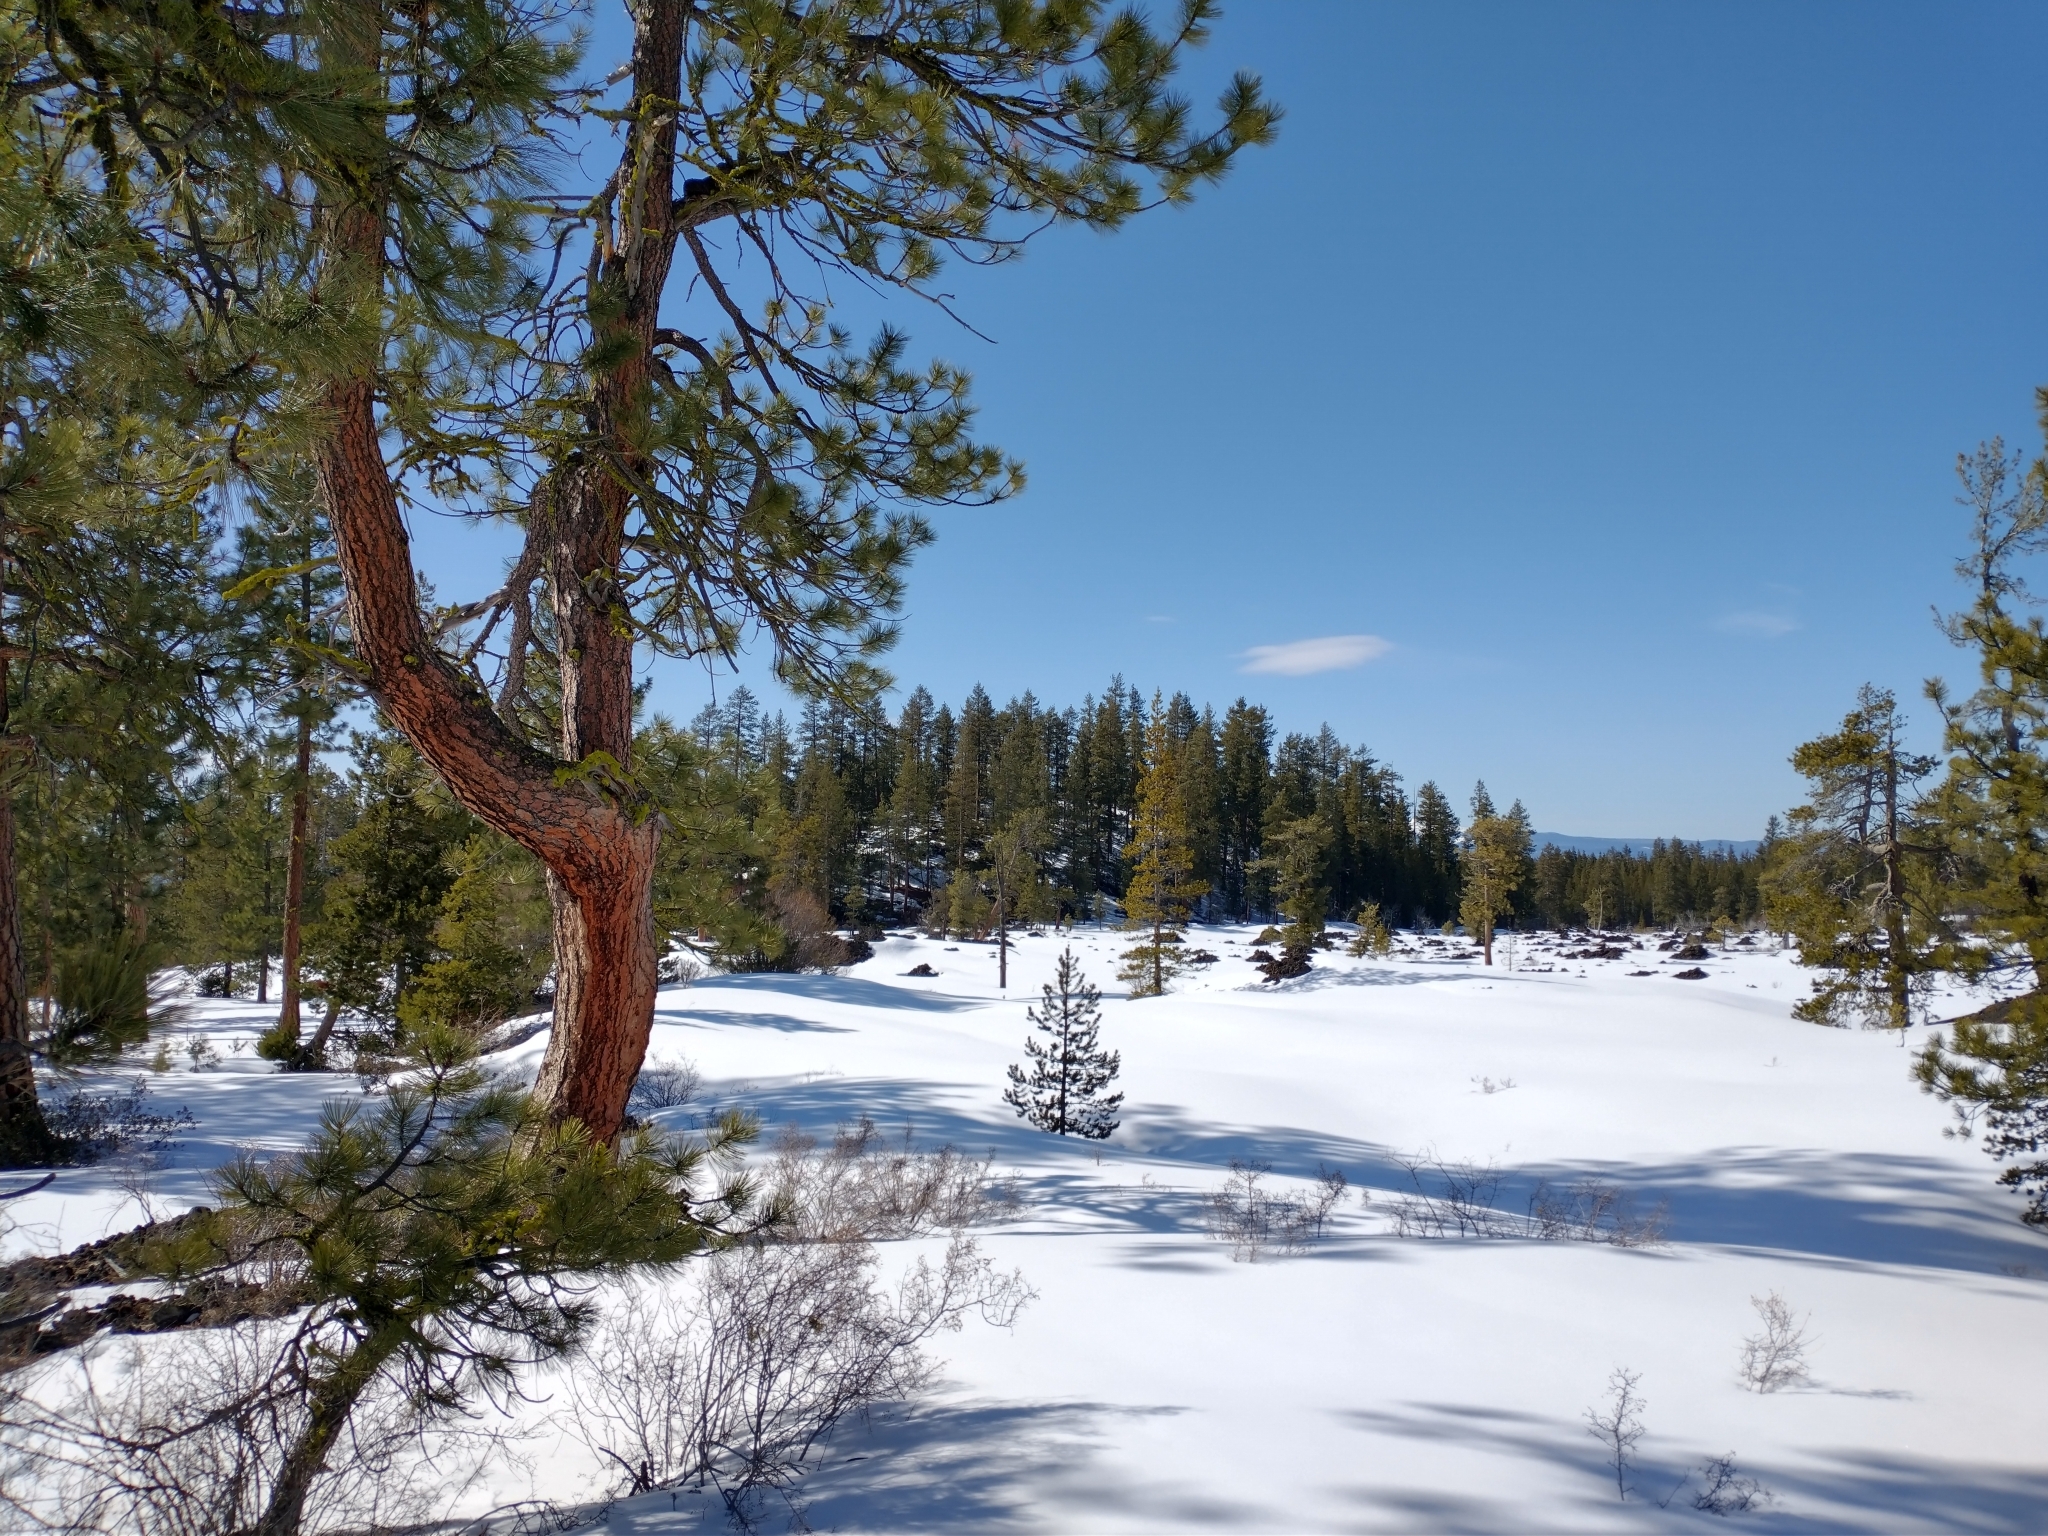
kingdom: Plantae
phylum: Tracheophyta
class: Pinopsida
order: Pinales
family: Pinaceae
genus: Pinus
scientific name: Pinus ponderosa
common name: Western yellow-pine
